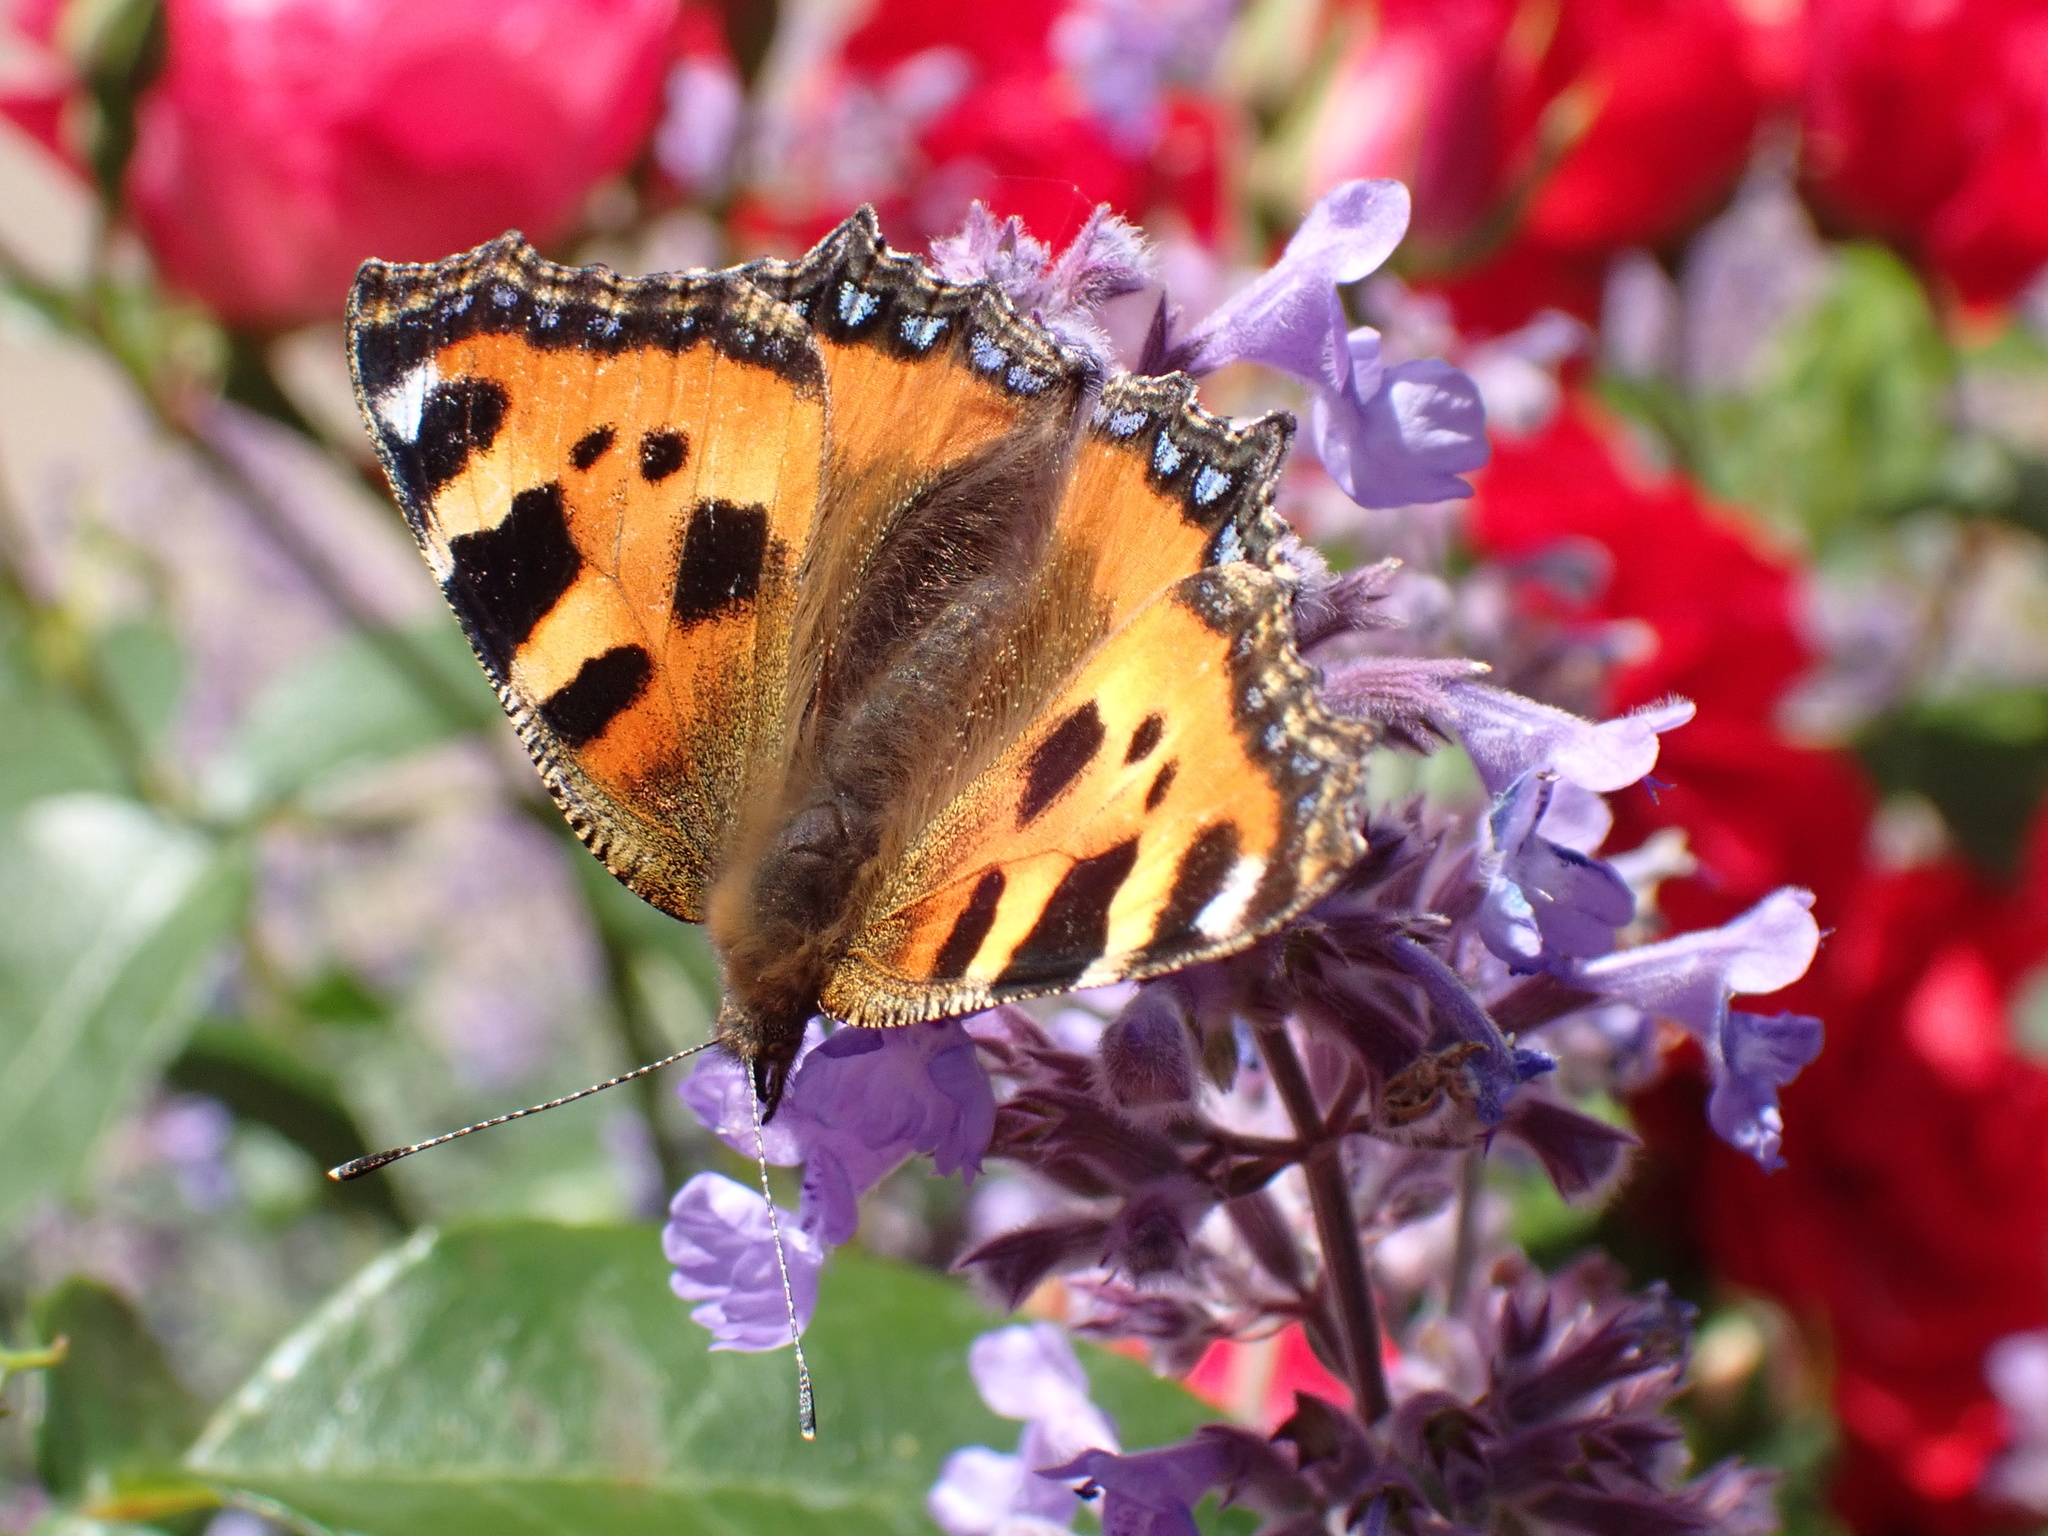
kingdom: Animalia
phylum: Arthropoda
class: Insecta
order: Lepidoptera
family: Nymphalidae
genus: Aglais
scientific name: Aglais urticae
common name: Small tortoiseshell
